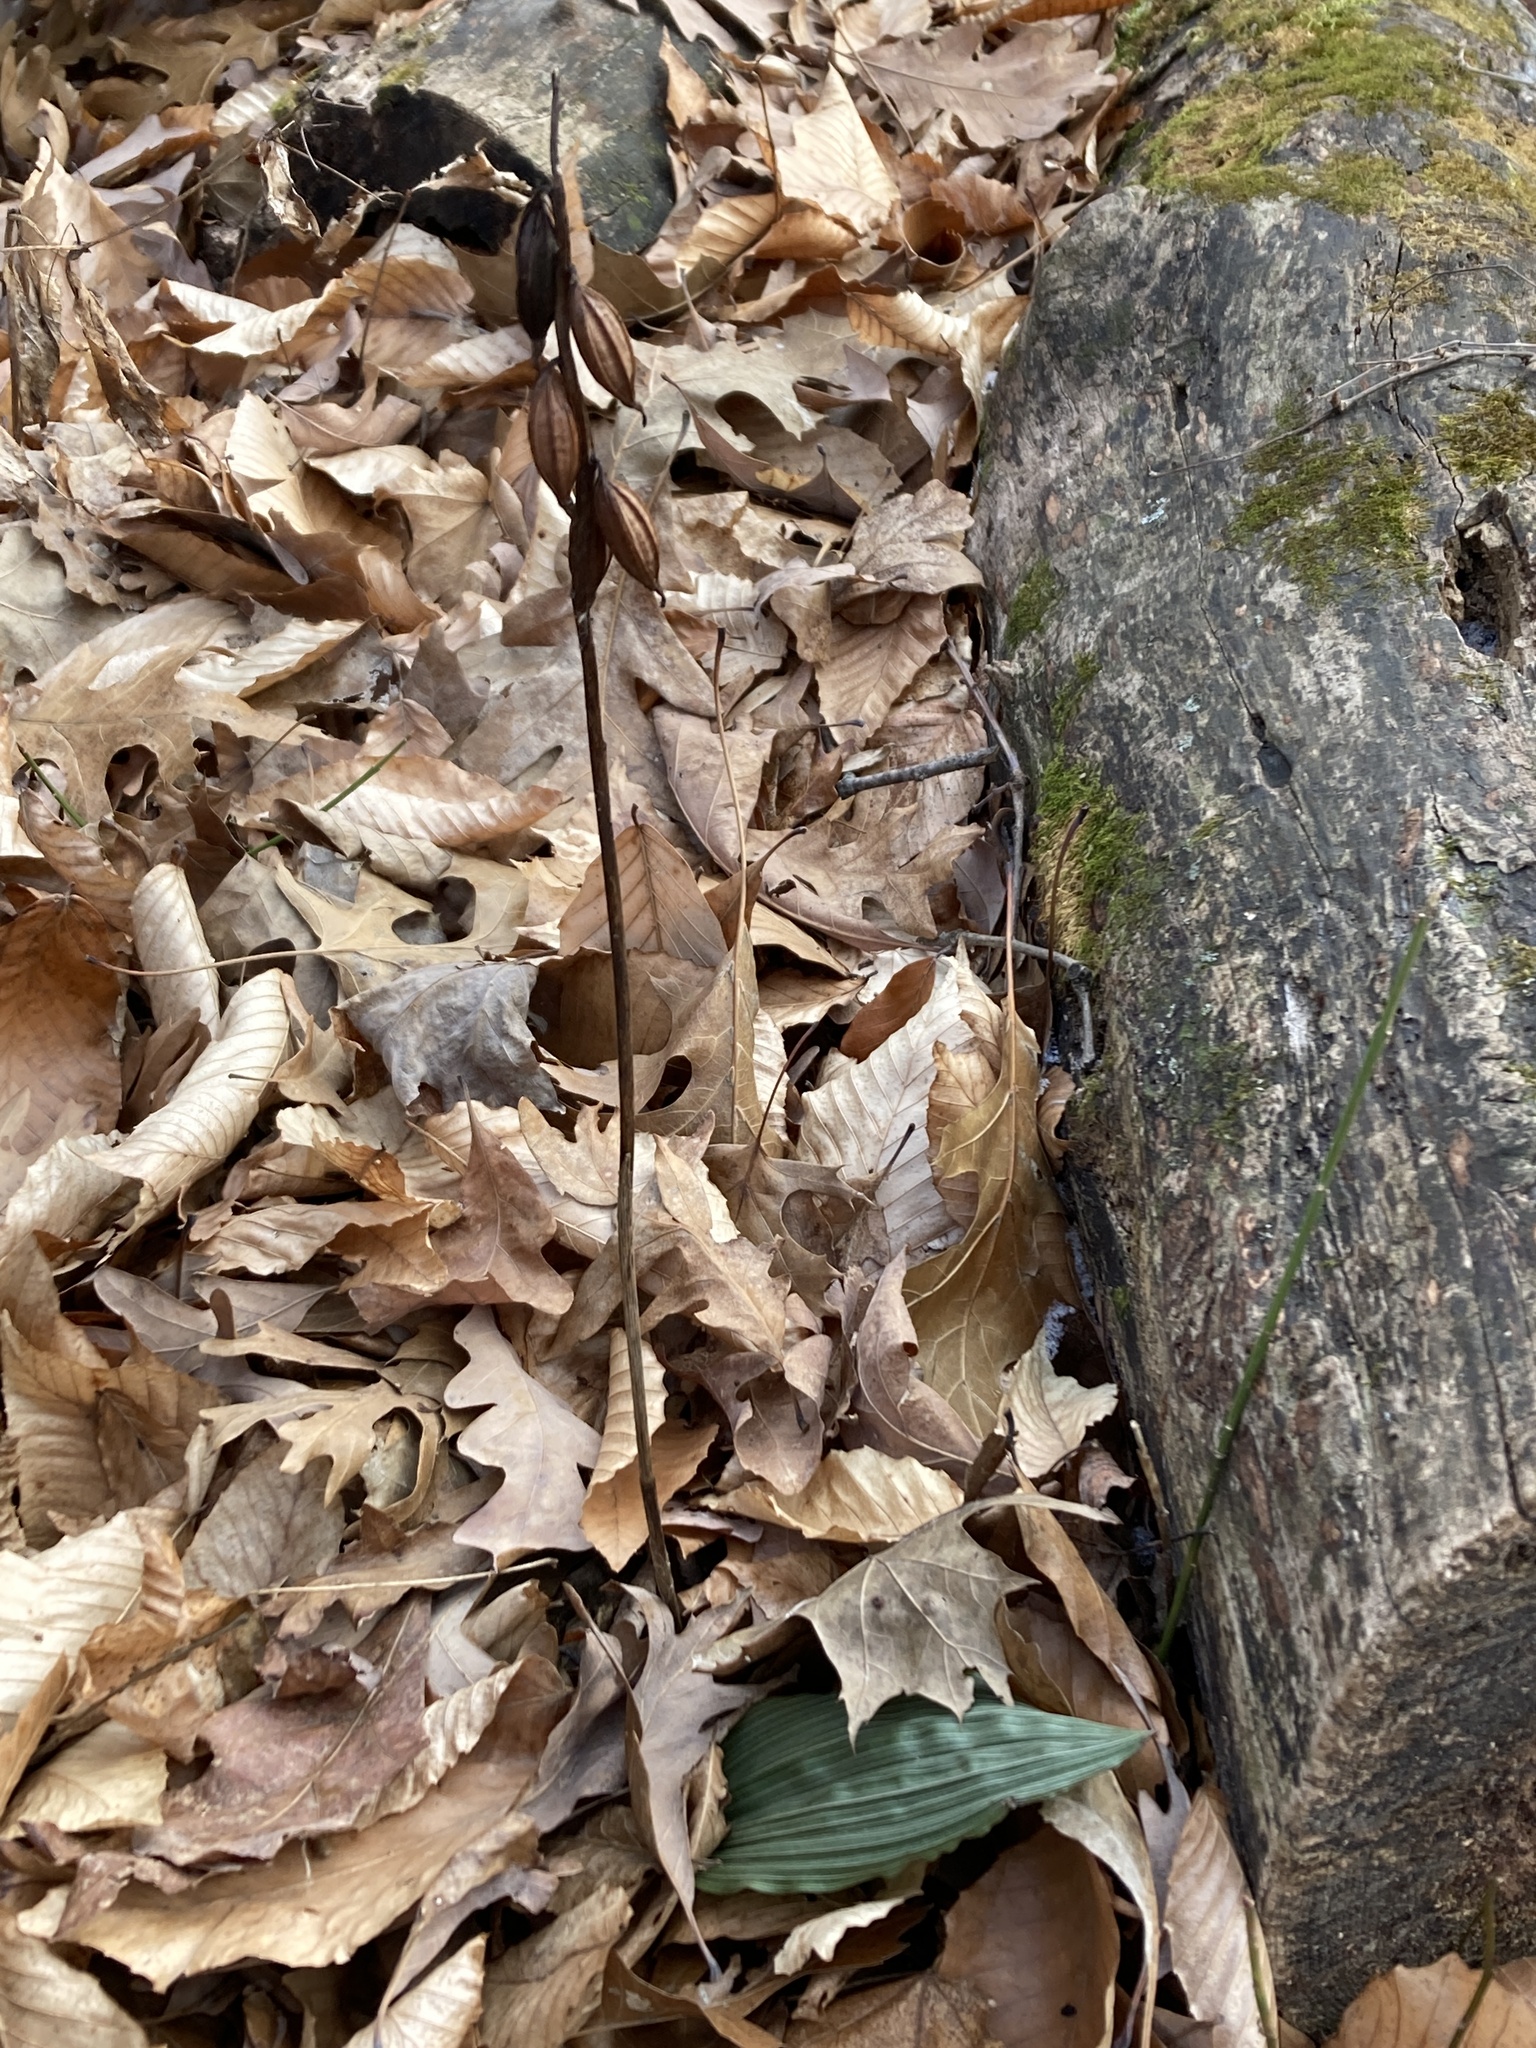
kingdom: Plantae
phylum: Tracheophyta
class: Liliopsida
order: Asparagales
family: Orchidaceae
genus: Aplectrum
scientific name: Aplectrum hyemale
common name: Adam-and-eve
